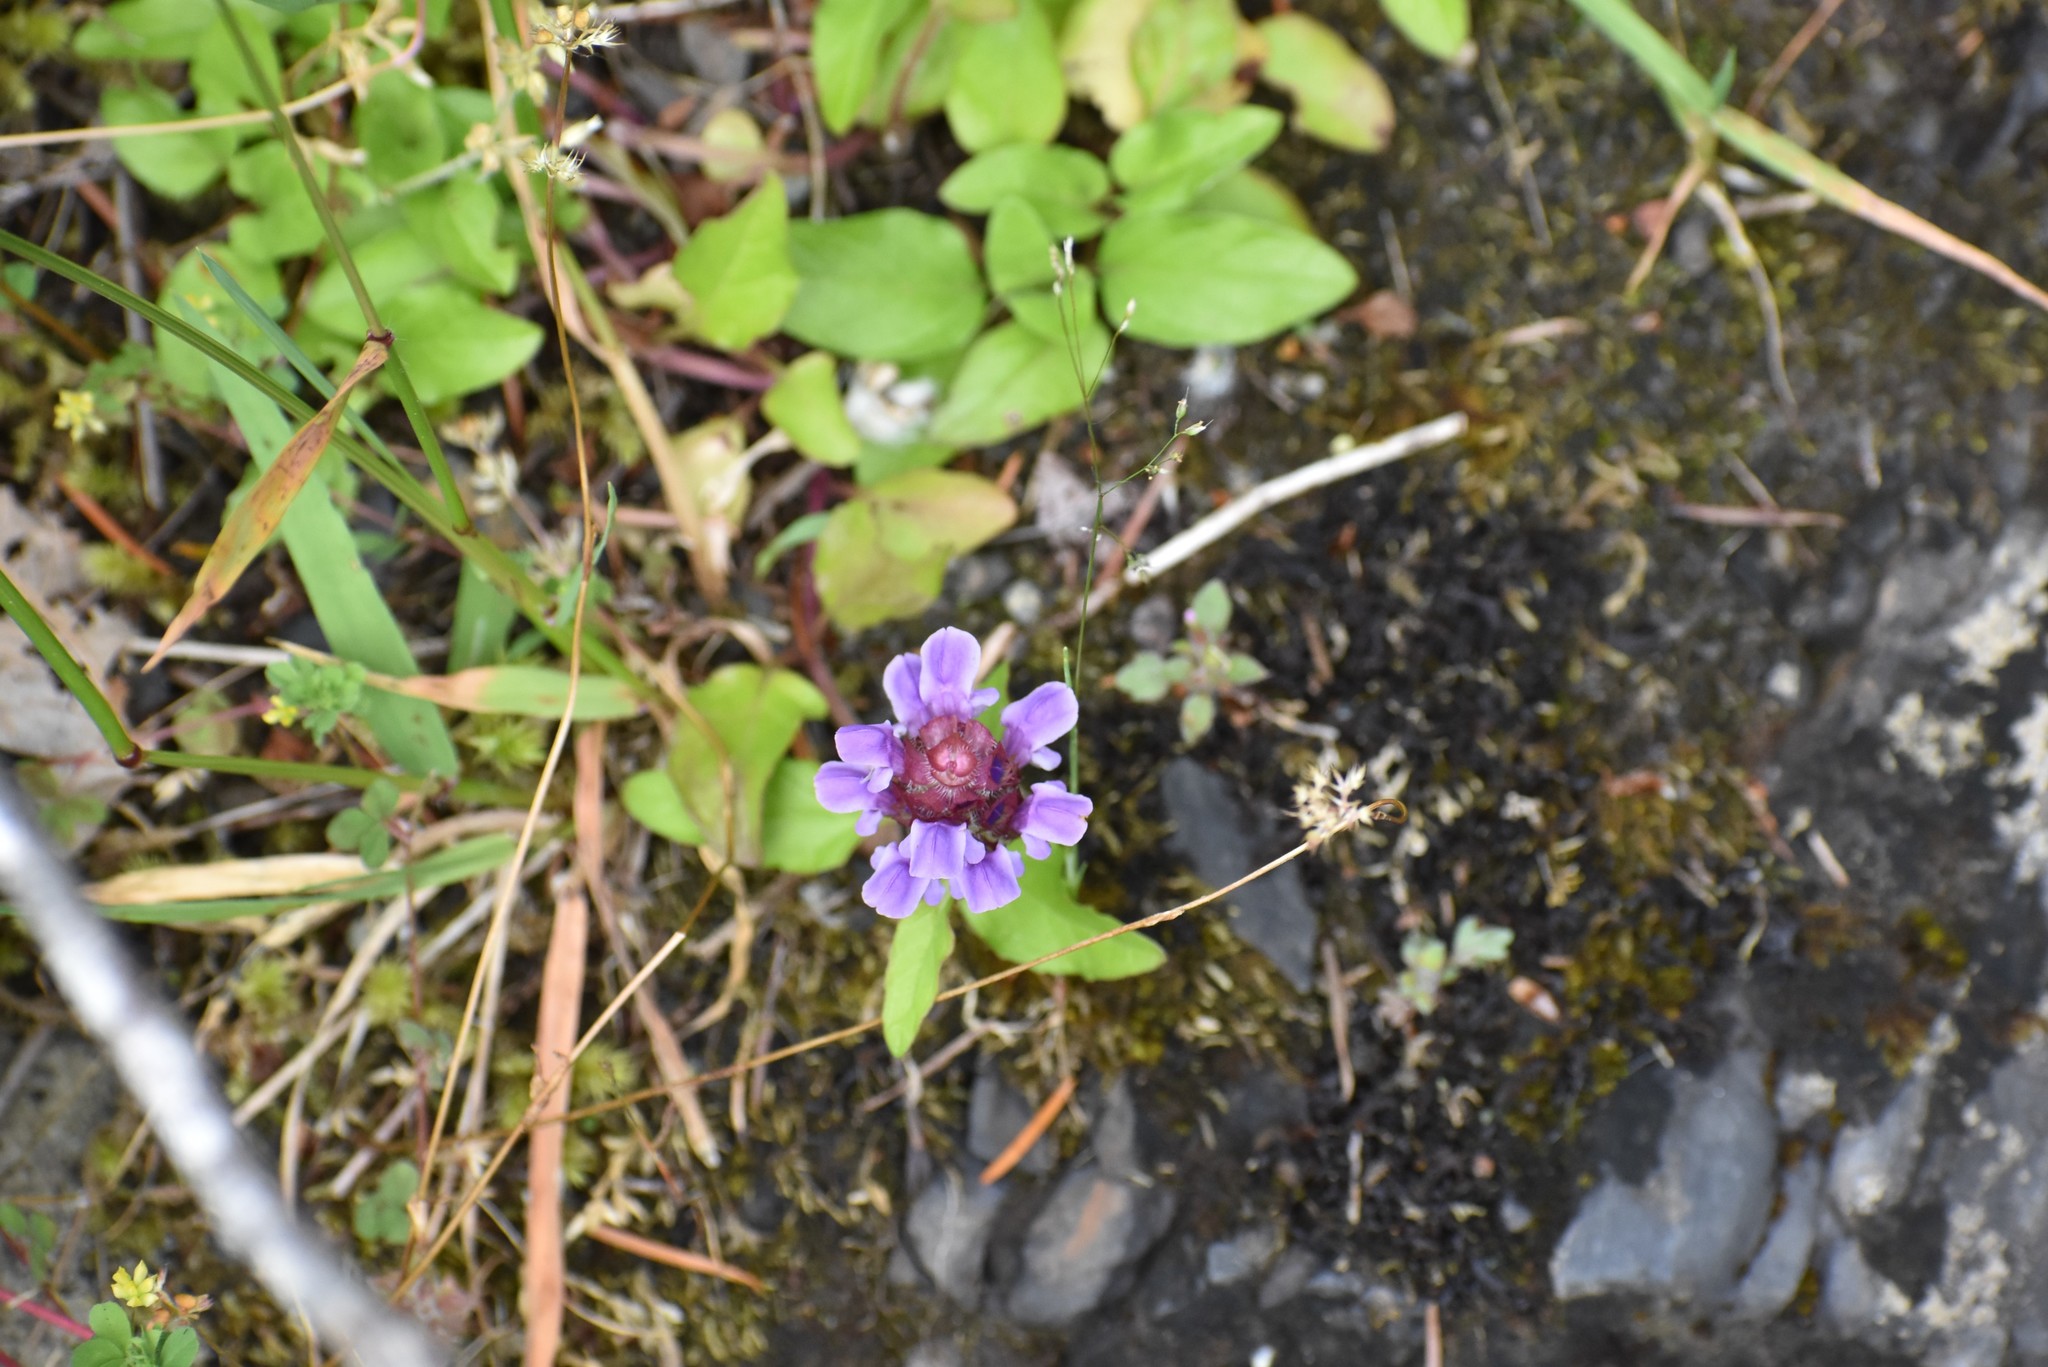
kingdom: Plantae
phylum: Tracheophyta
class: Magnoliopsida
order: Lamiales
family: Lamiaceae
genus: Prunella
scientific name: Prunella vulgaris
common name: Heal-all
